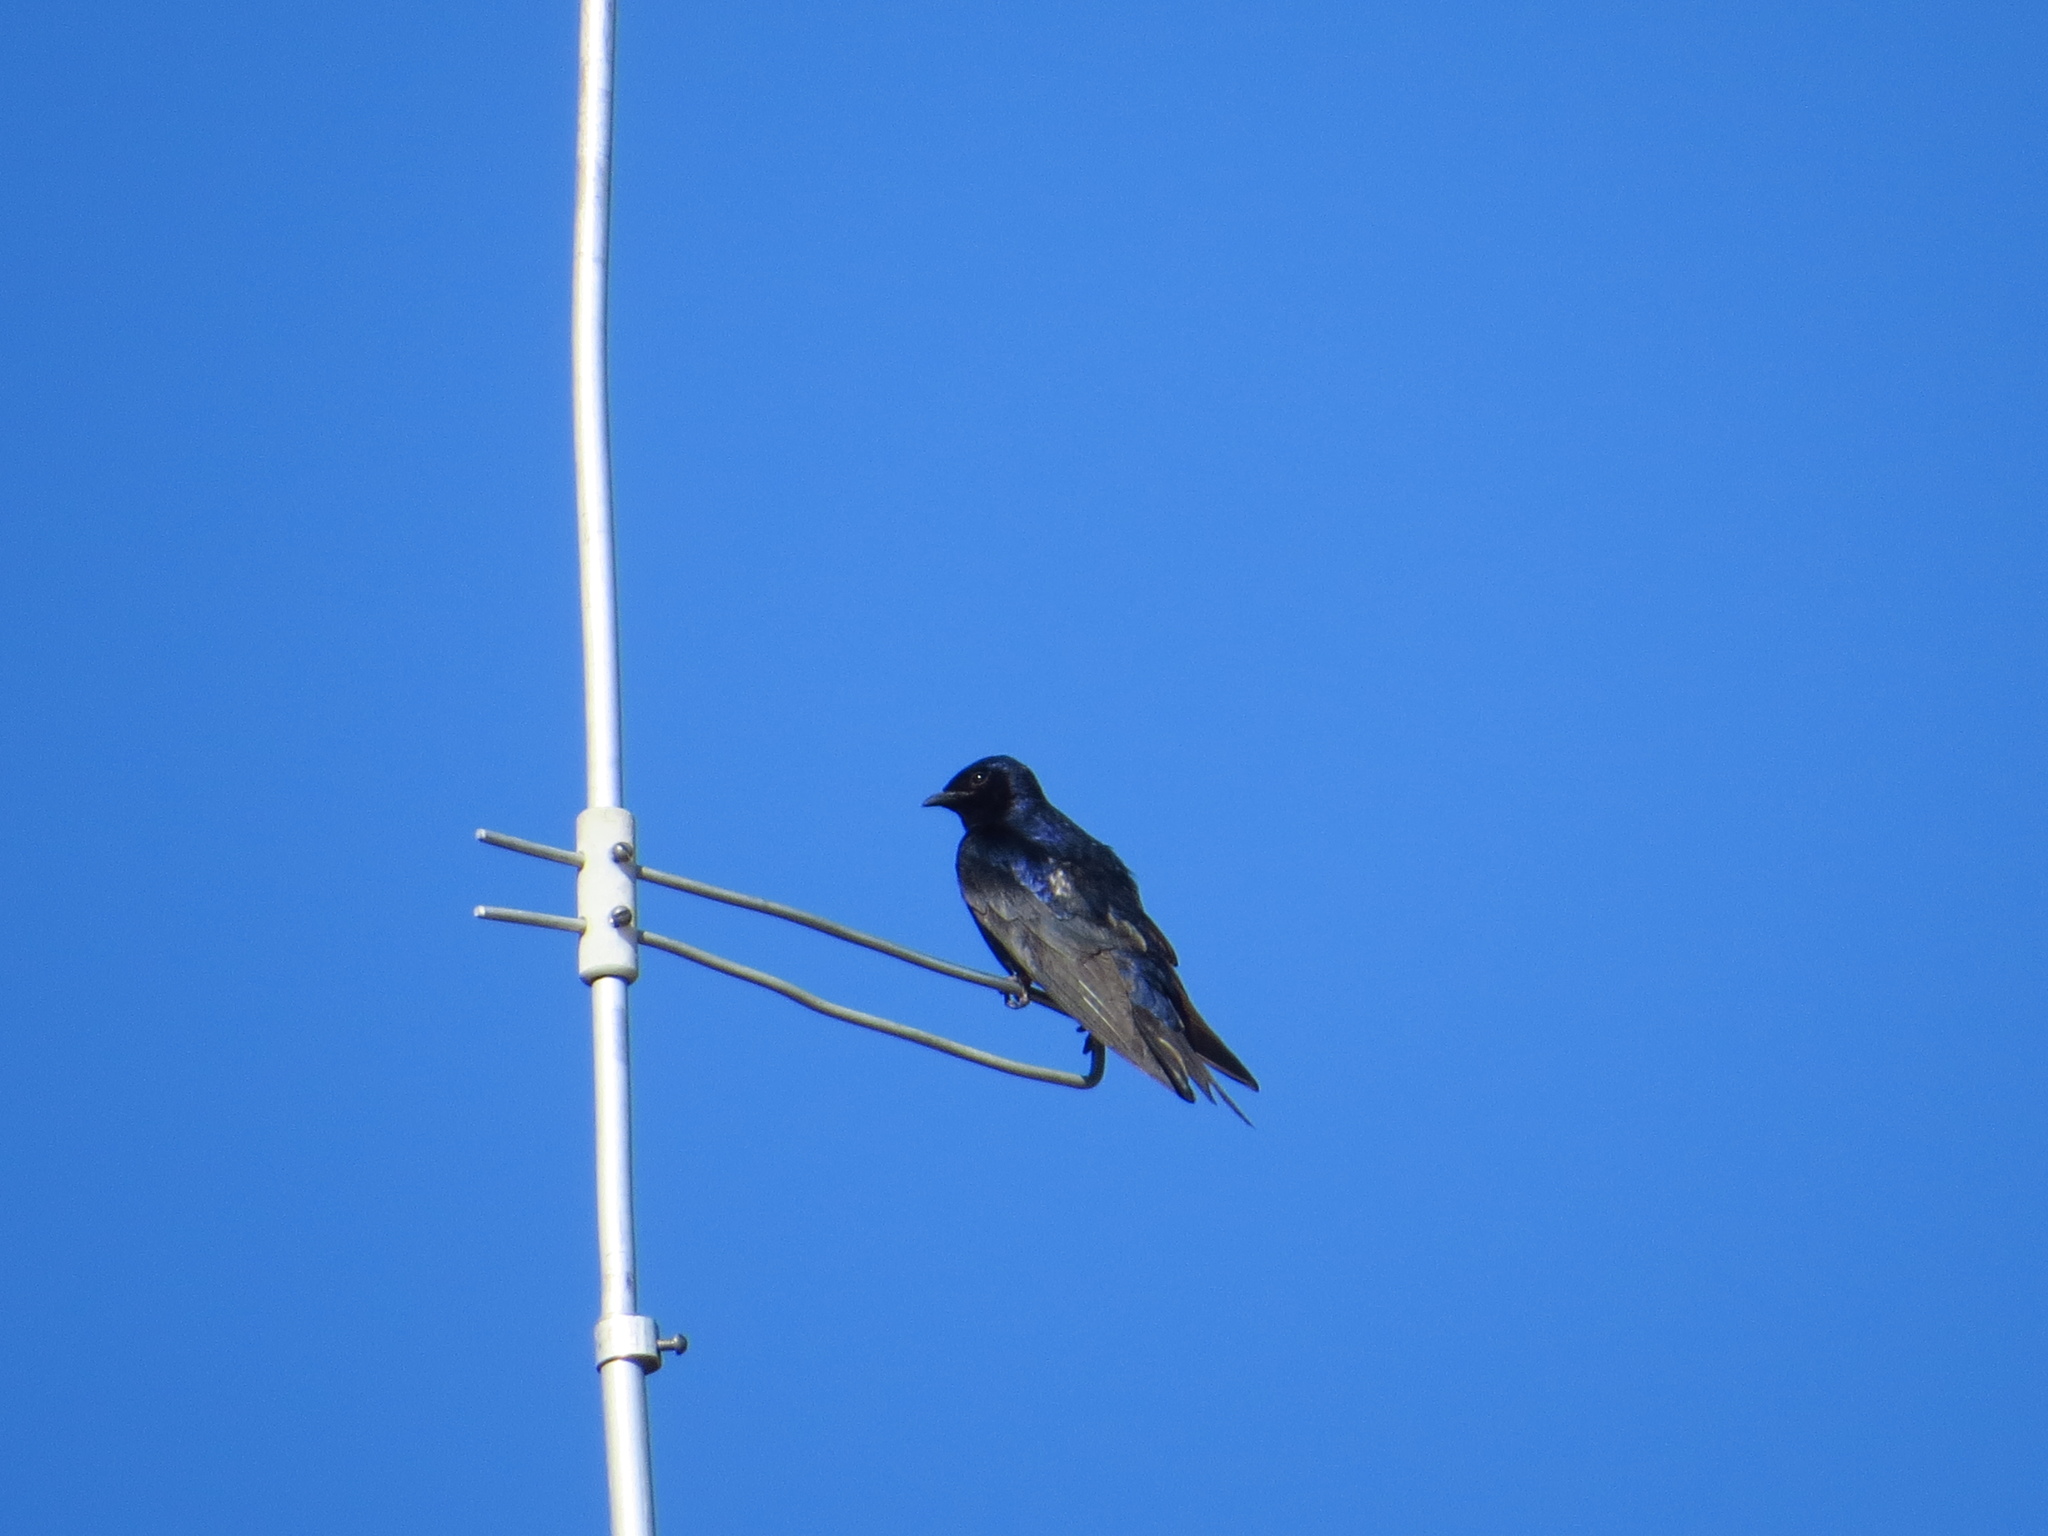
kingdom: Animalia
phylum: Chordata
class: Aves
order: Passeriformes
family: Hirundinidae
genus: Progne
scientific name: Progne elegans
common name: Southern martin
